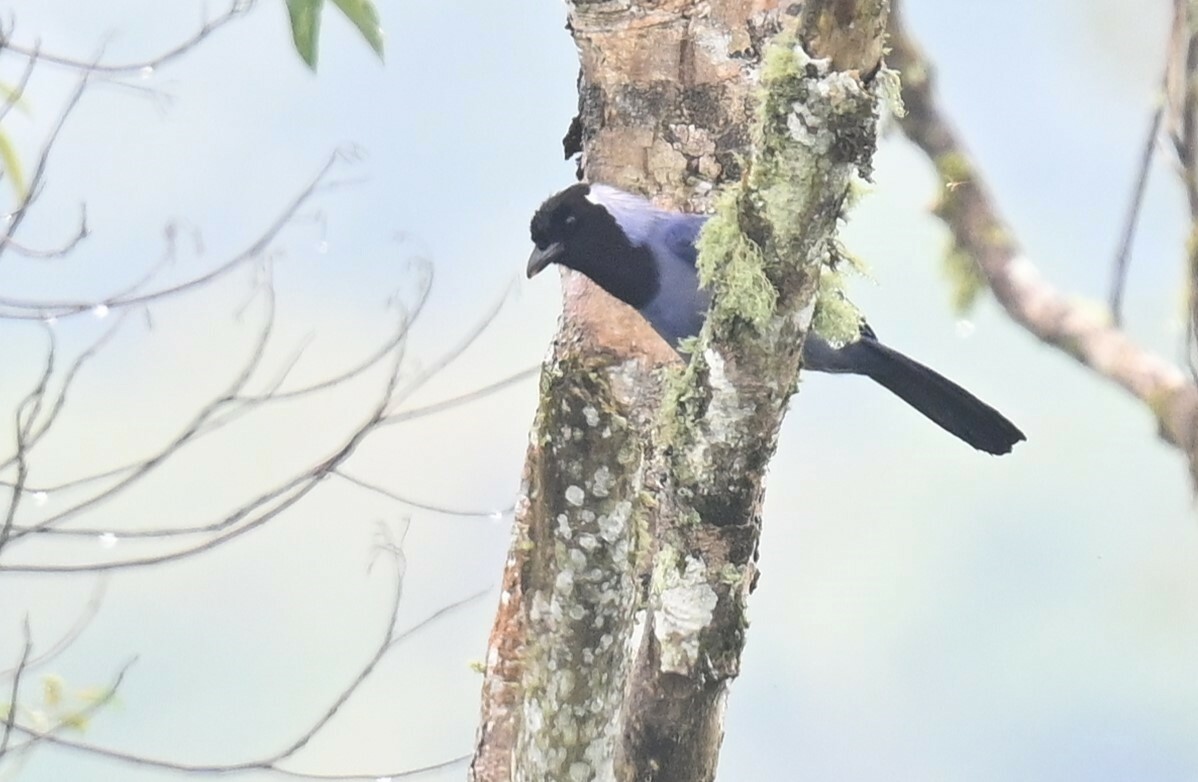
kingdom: Animalia
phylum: Chordata
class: Aves
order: Passeriformes
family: Corvidae
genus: Cyanocorax
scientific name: Cyanocorax violaceus
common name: Violaceous jay
